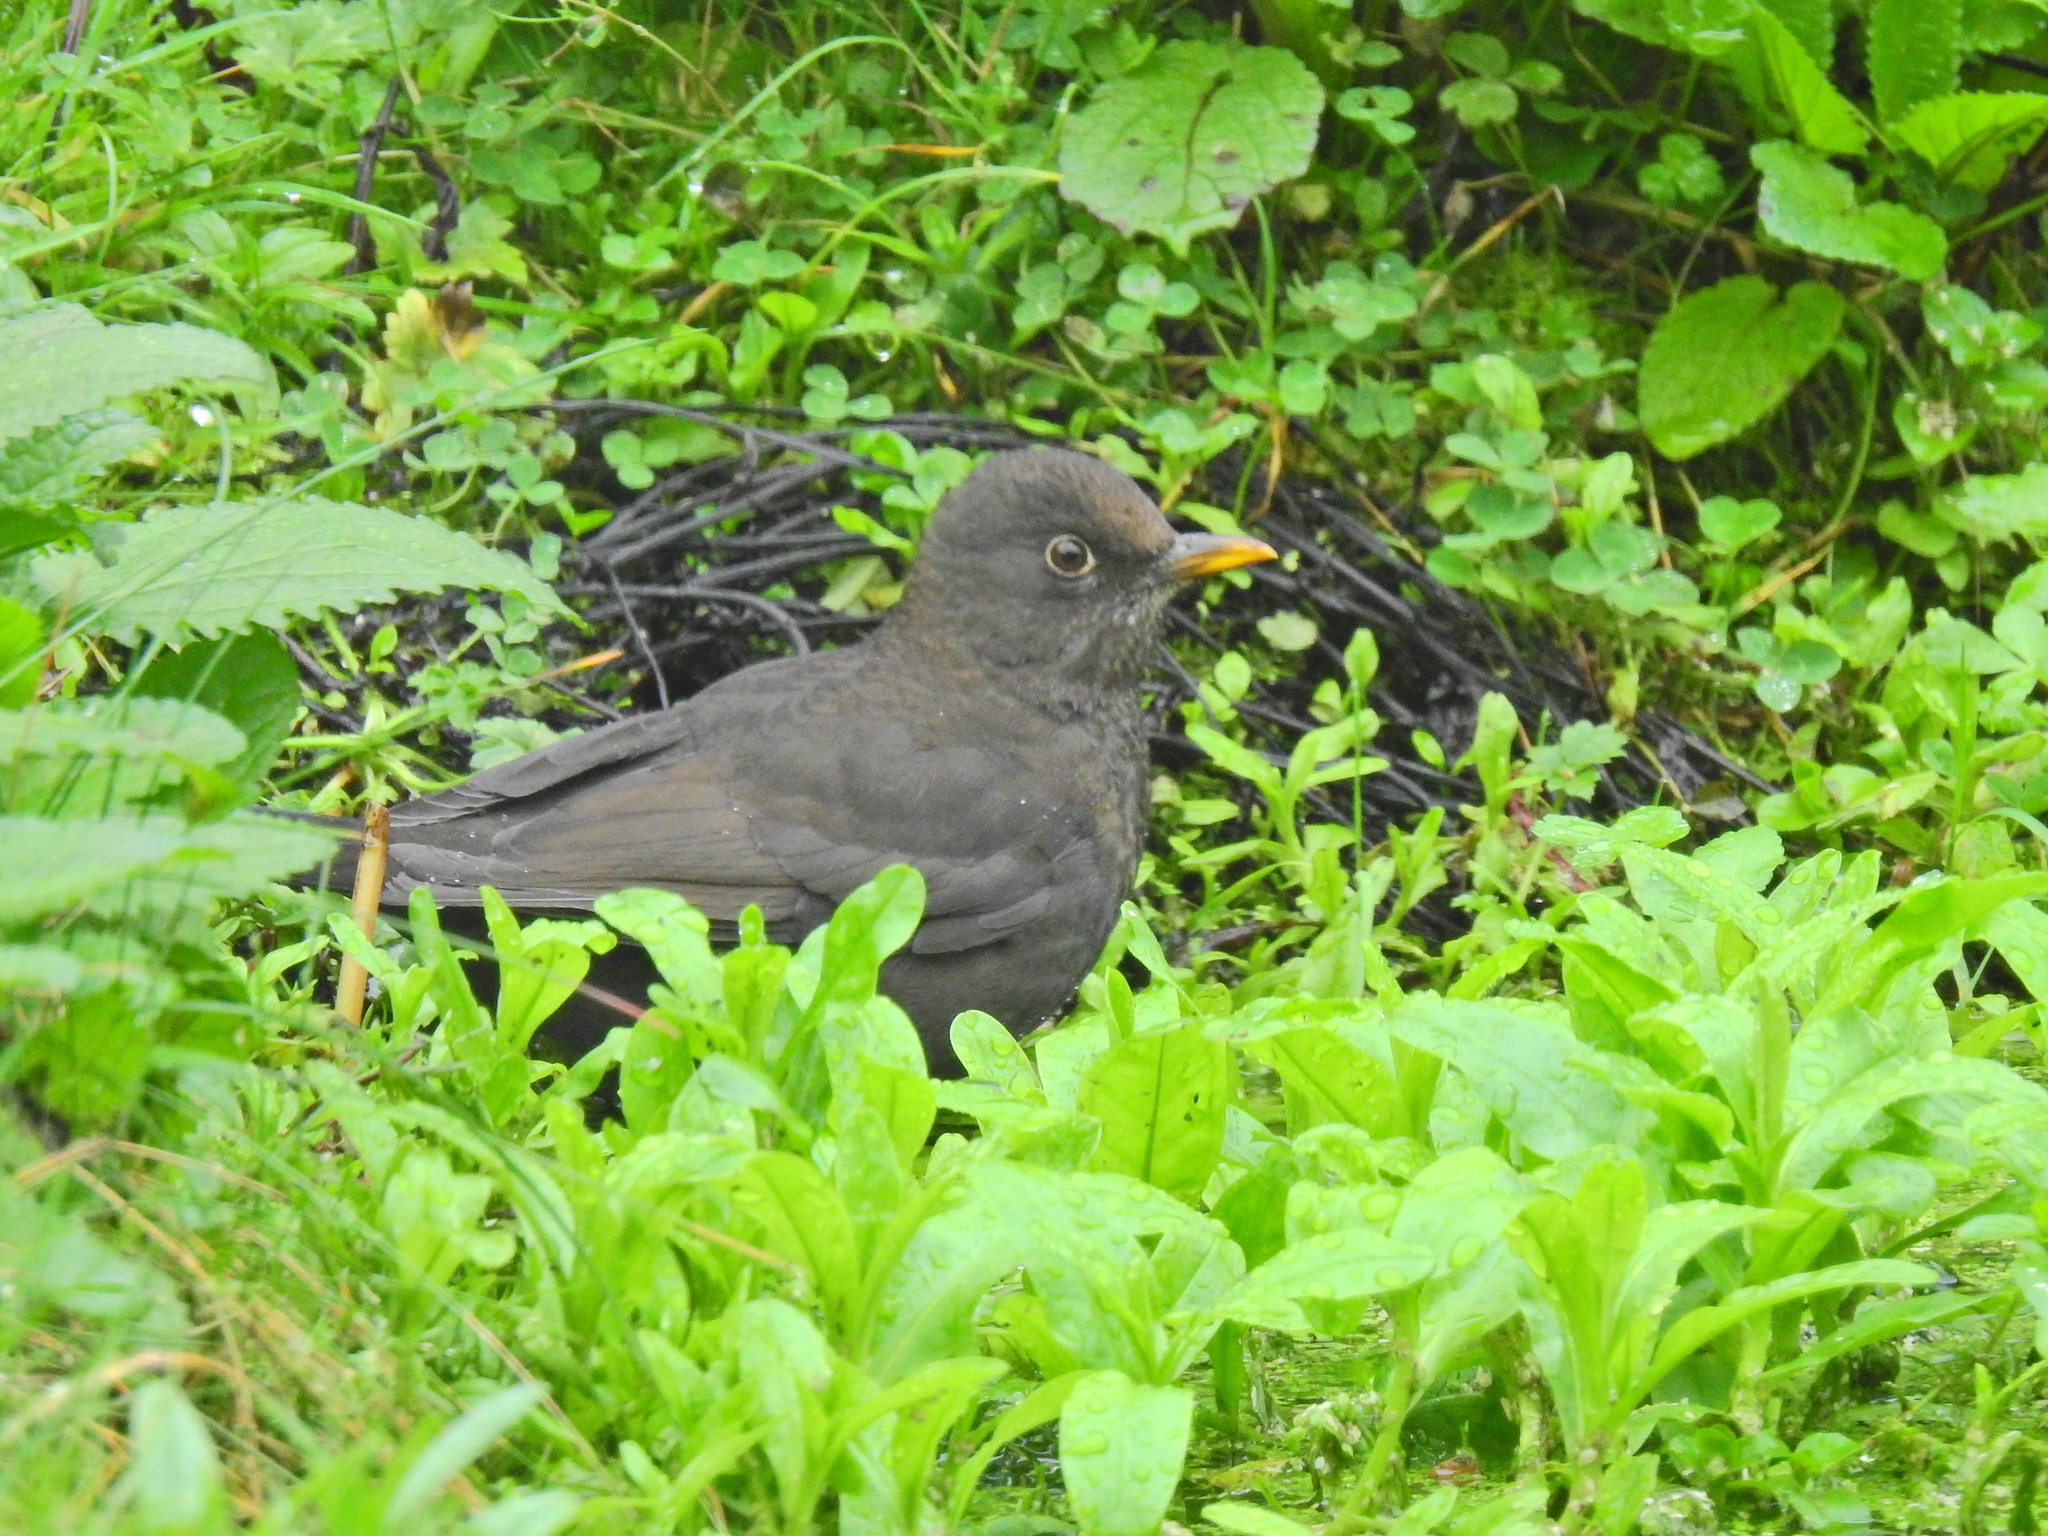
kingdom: Animalia
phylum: Chordata
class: Aves
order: Passeriformes
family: Turdidae
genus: Turdus
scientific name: Turdus merula
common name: Common blackbird
